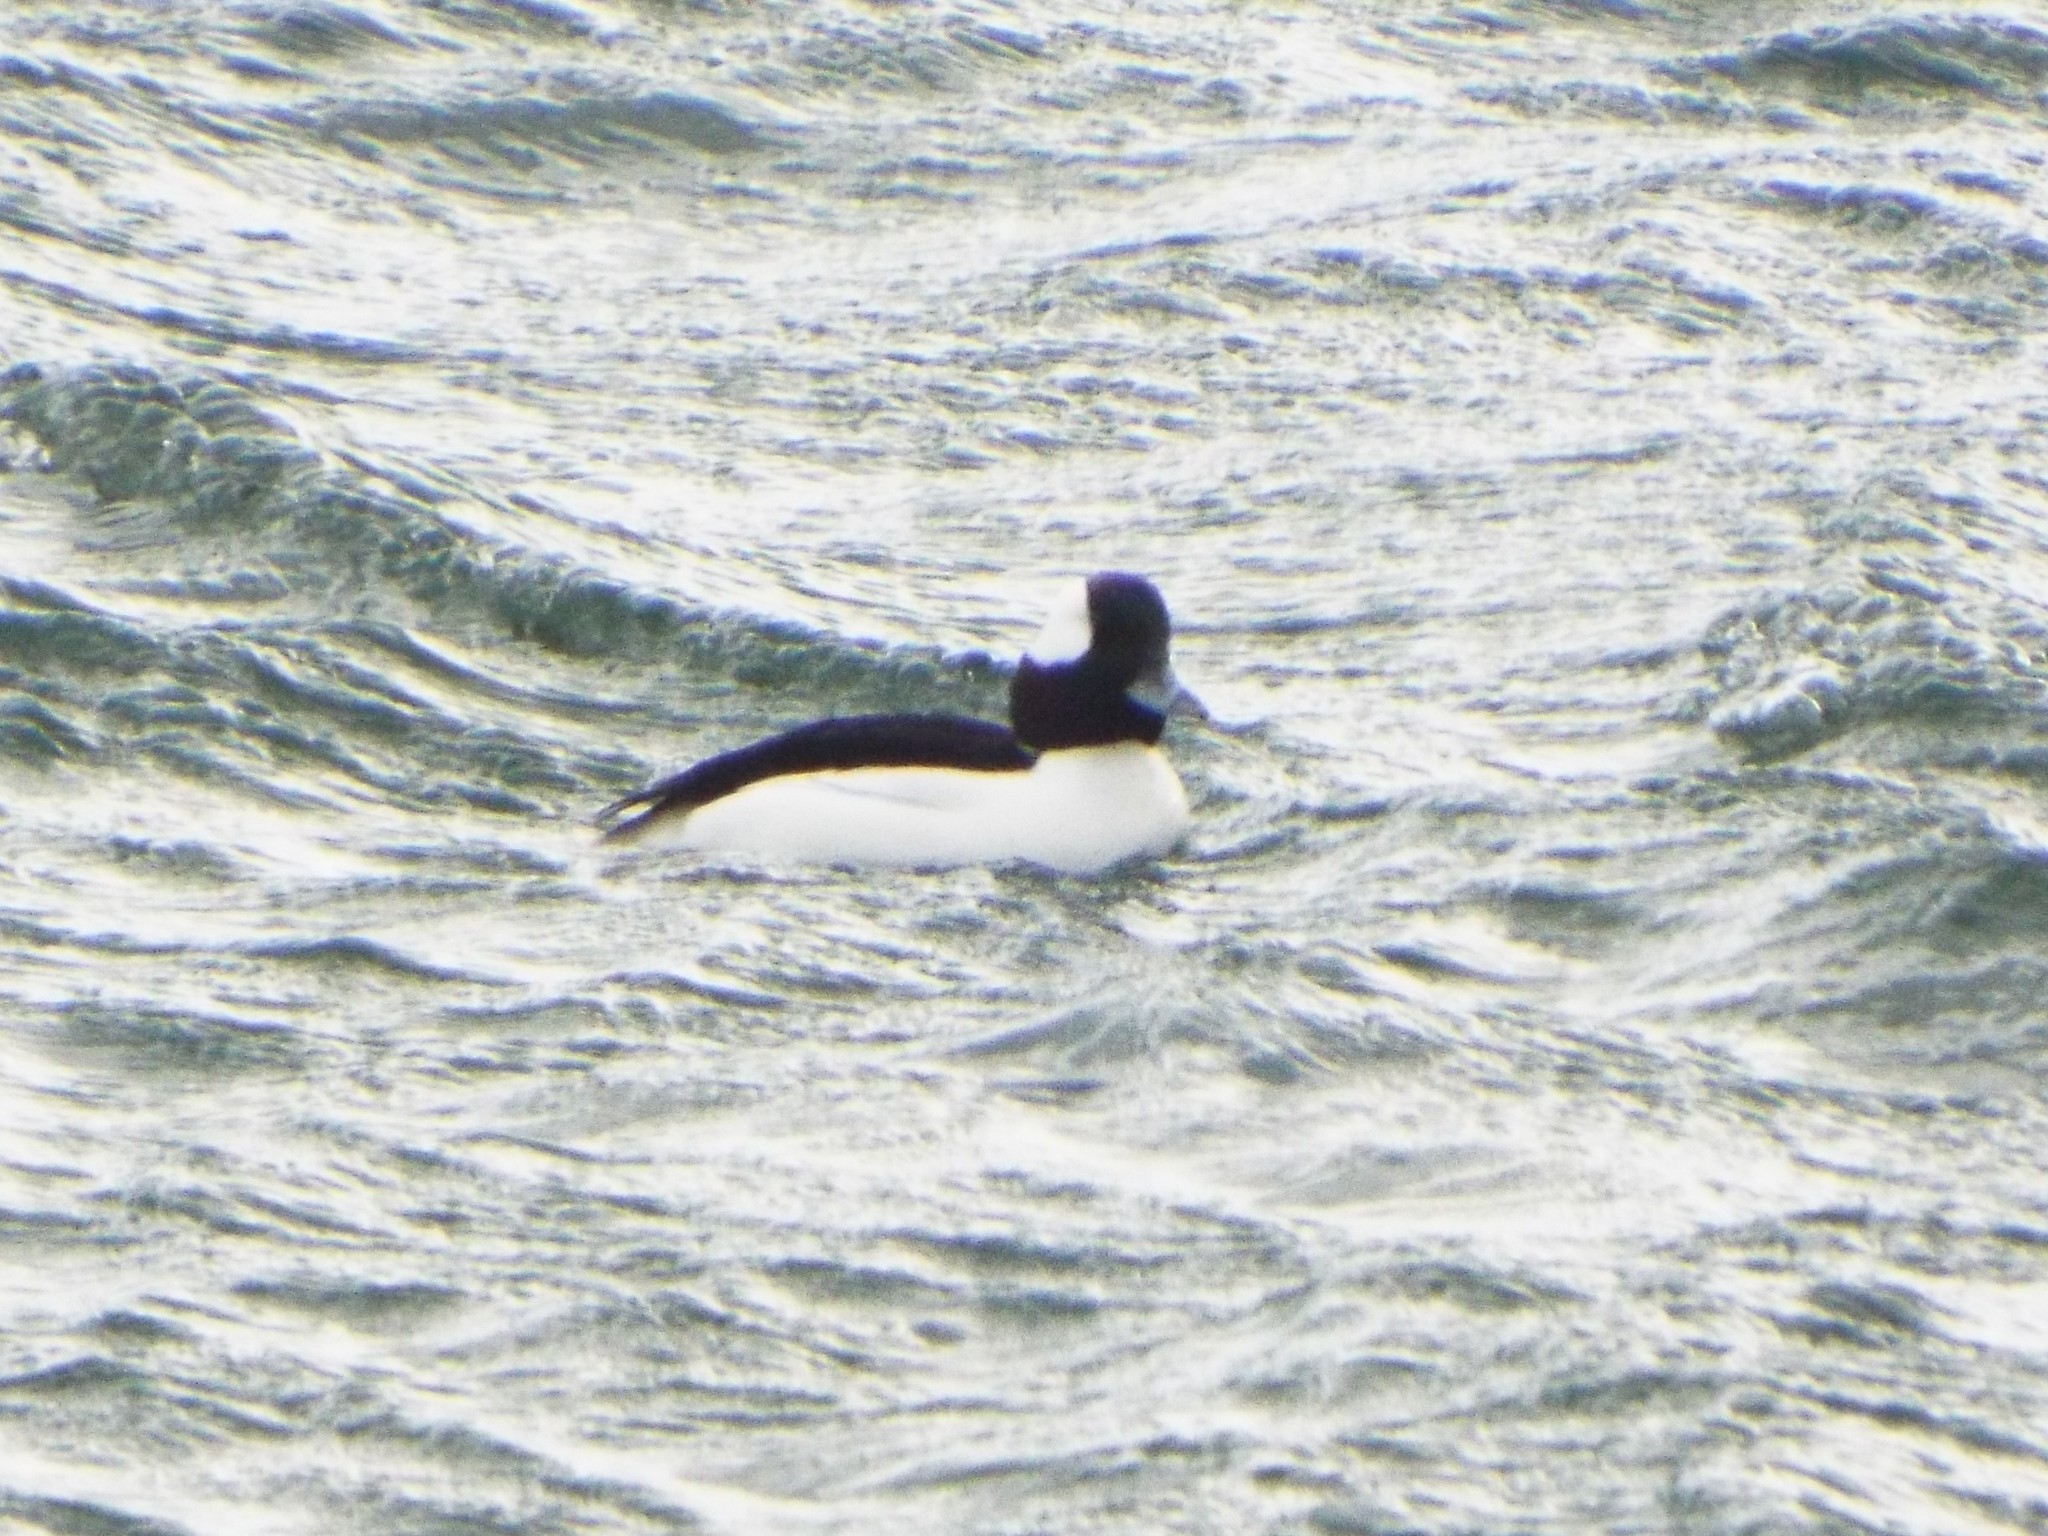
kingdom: Animalia
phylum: Chordata
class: Aves
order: Anseriformes
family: Anatidae
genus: Bucephala
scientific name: Bucephala albeola
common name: Bufflehead
